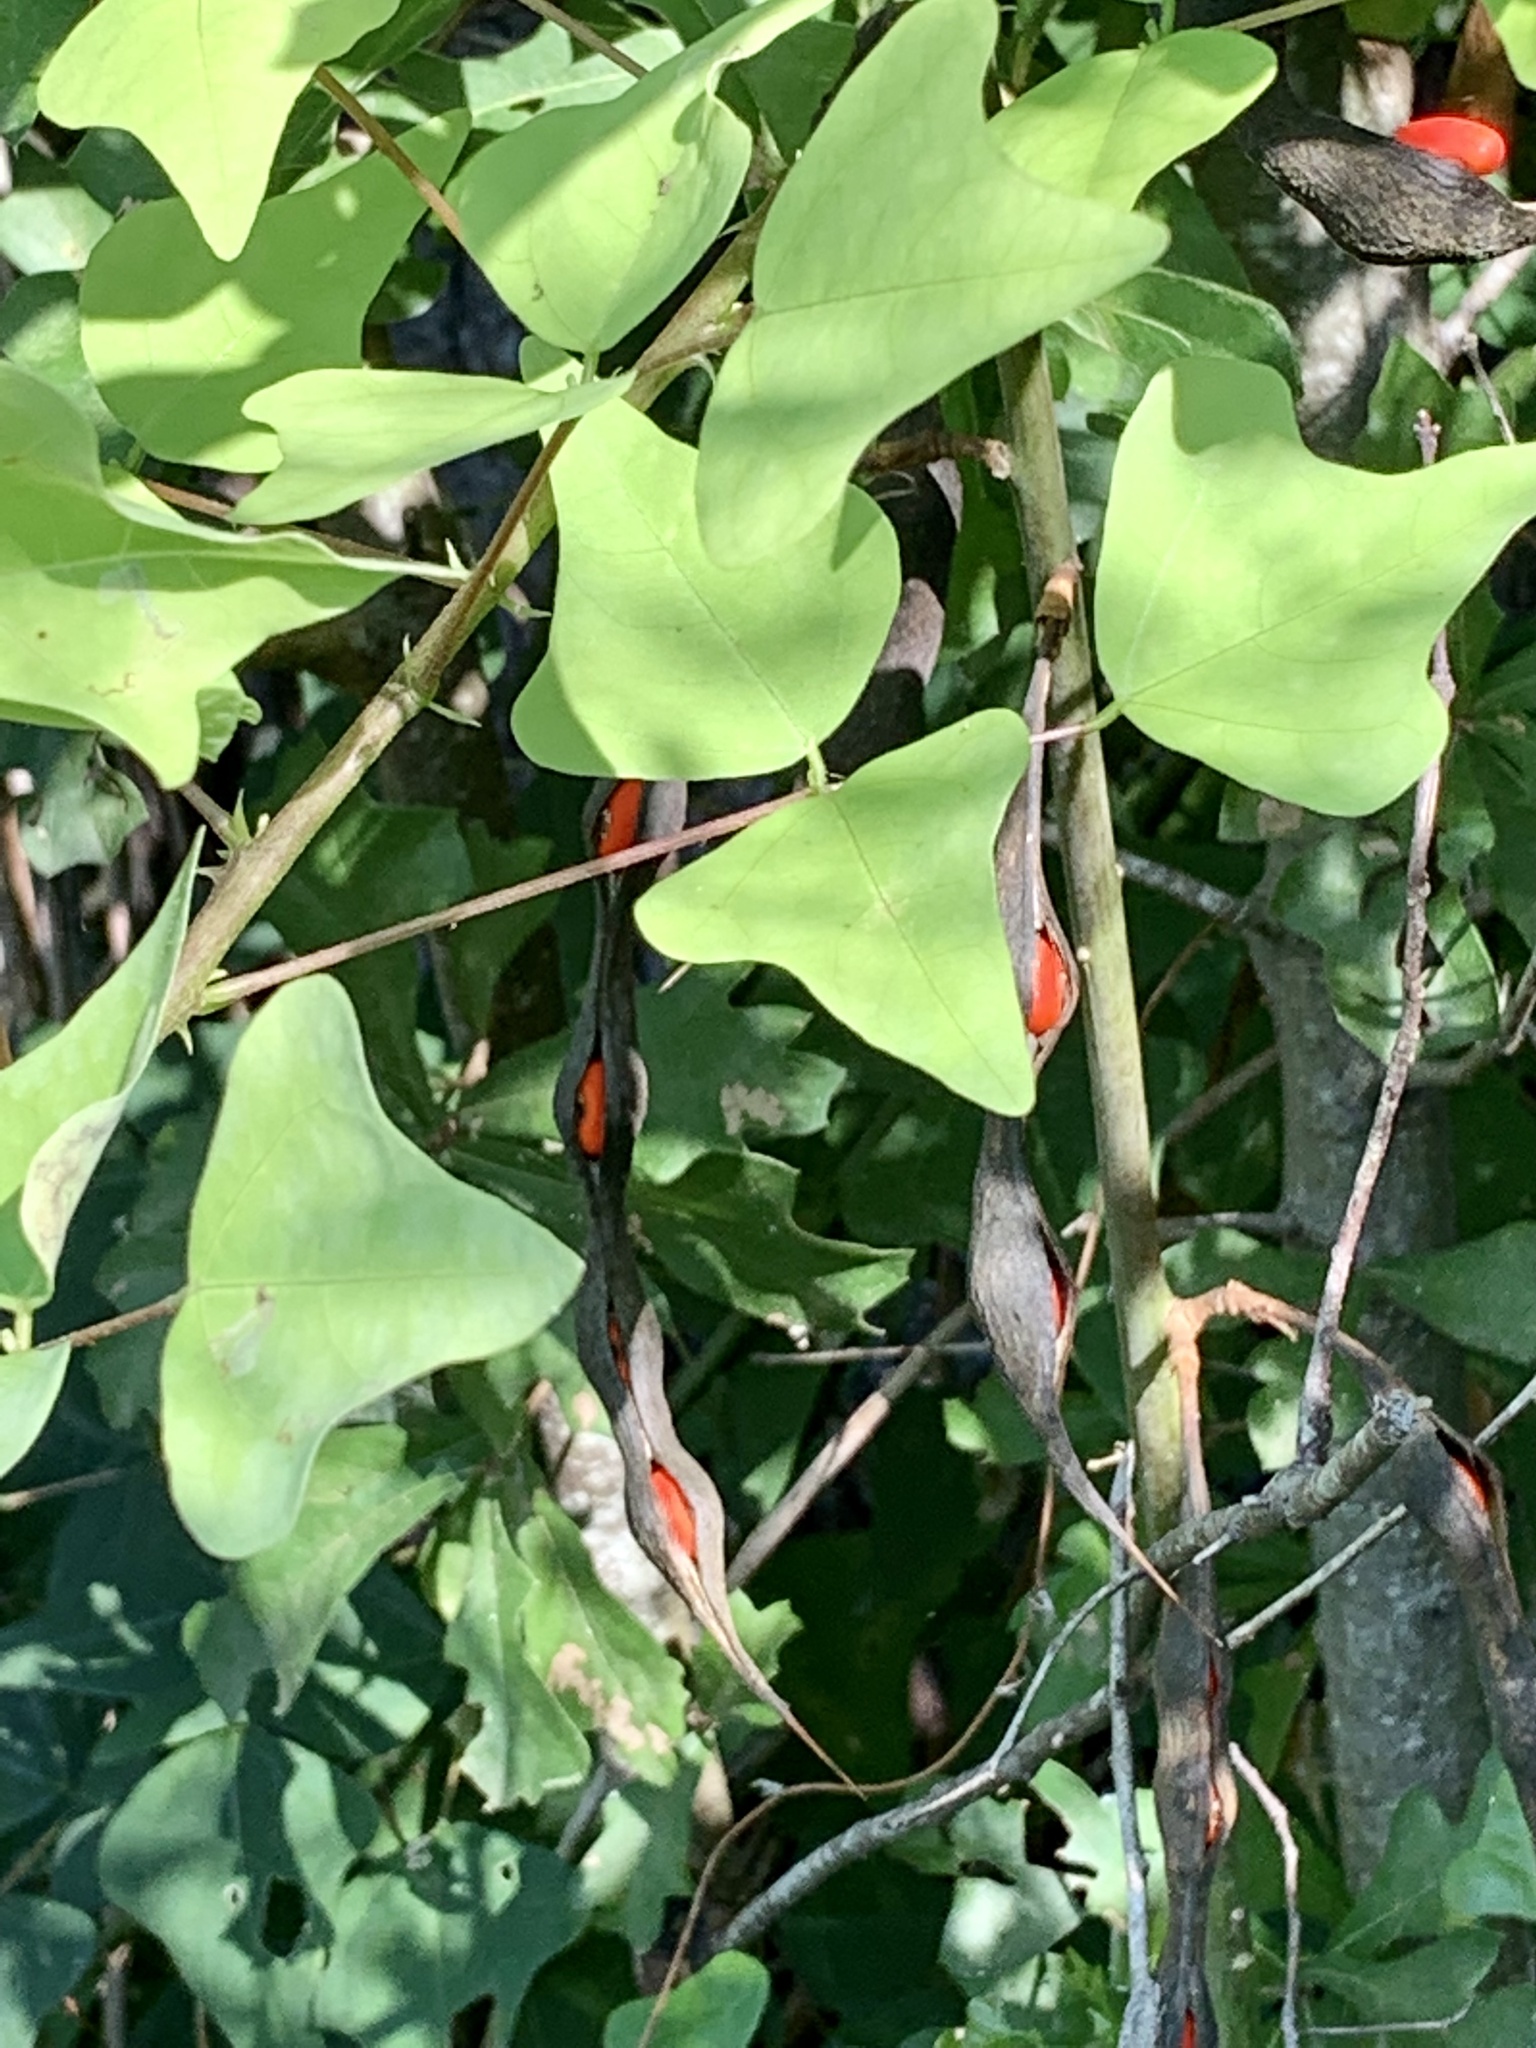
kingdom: Plantae
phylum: Tracheophyta
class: Magnoliopsida
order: Fabales
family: Fabaceae
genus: Erythrina
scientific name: Erythrina herbacea
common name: Coral-bean
